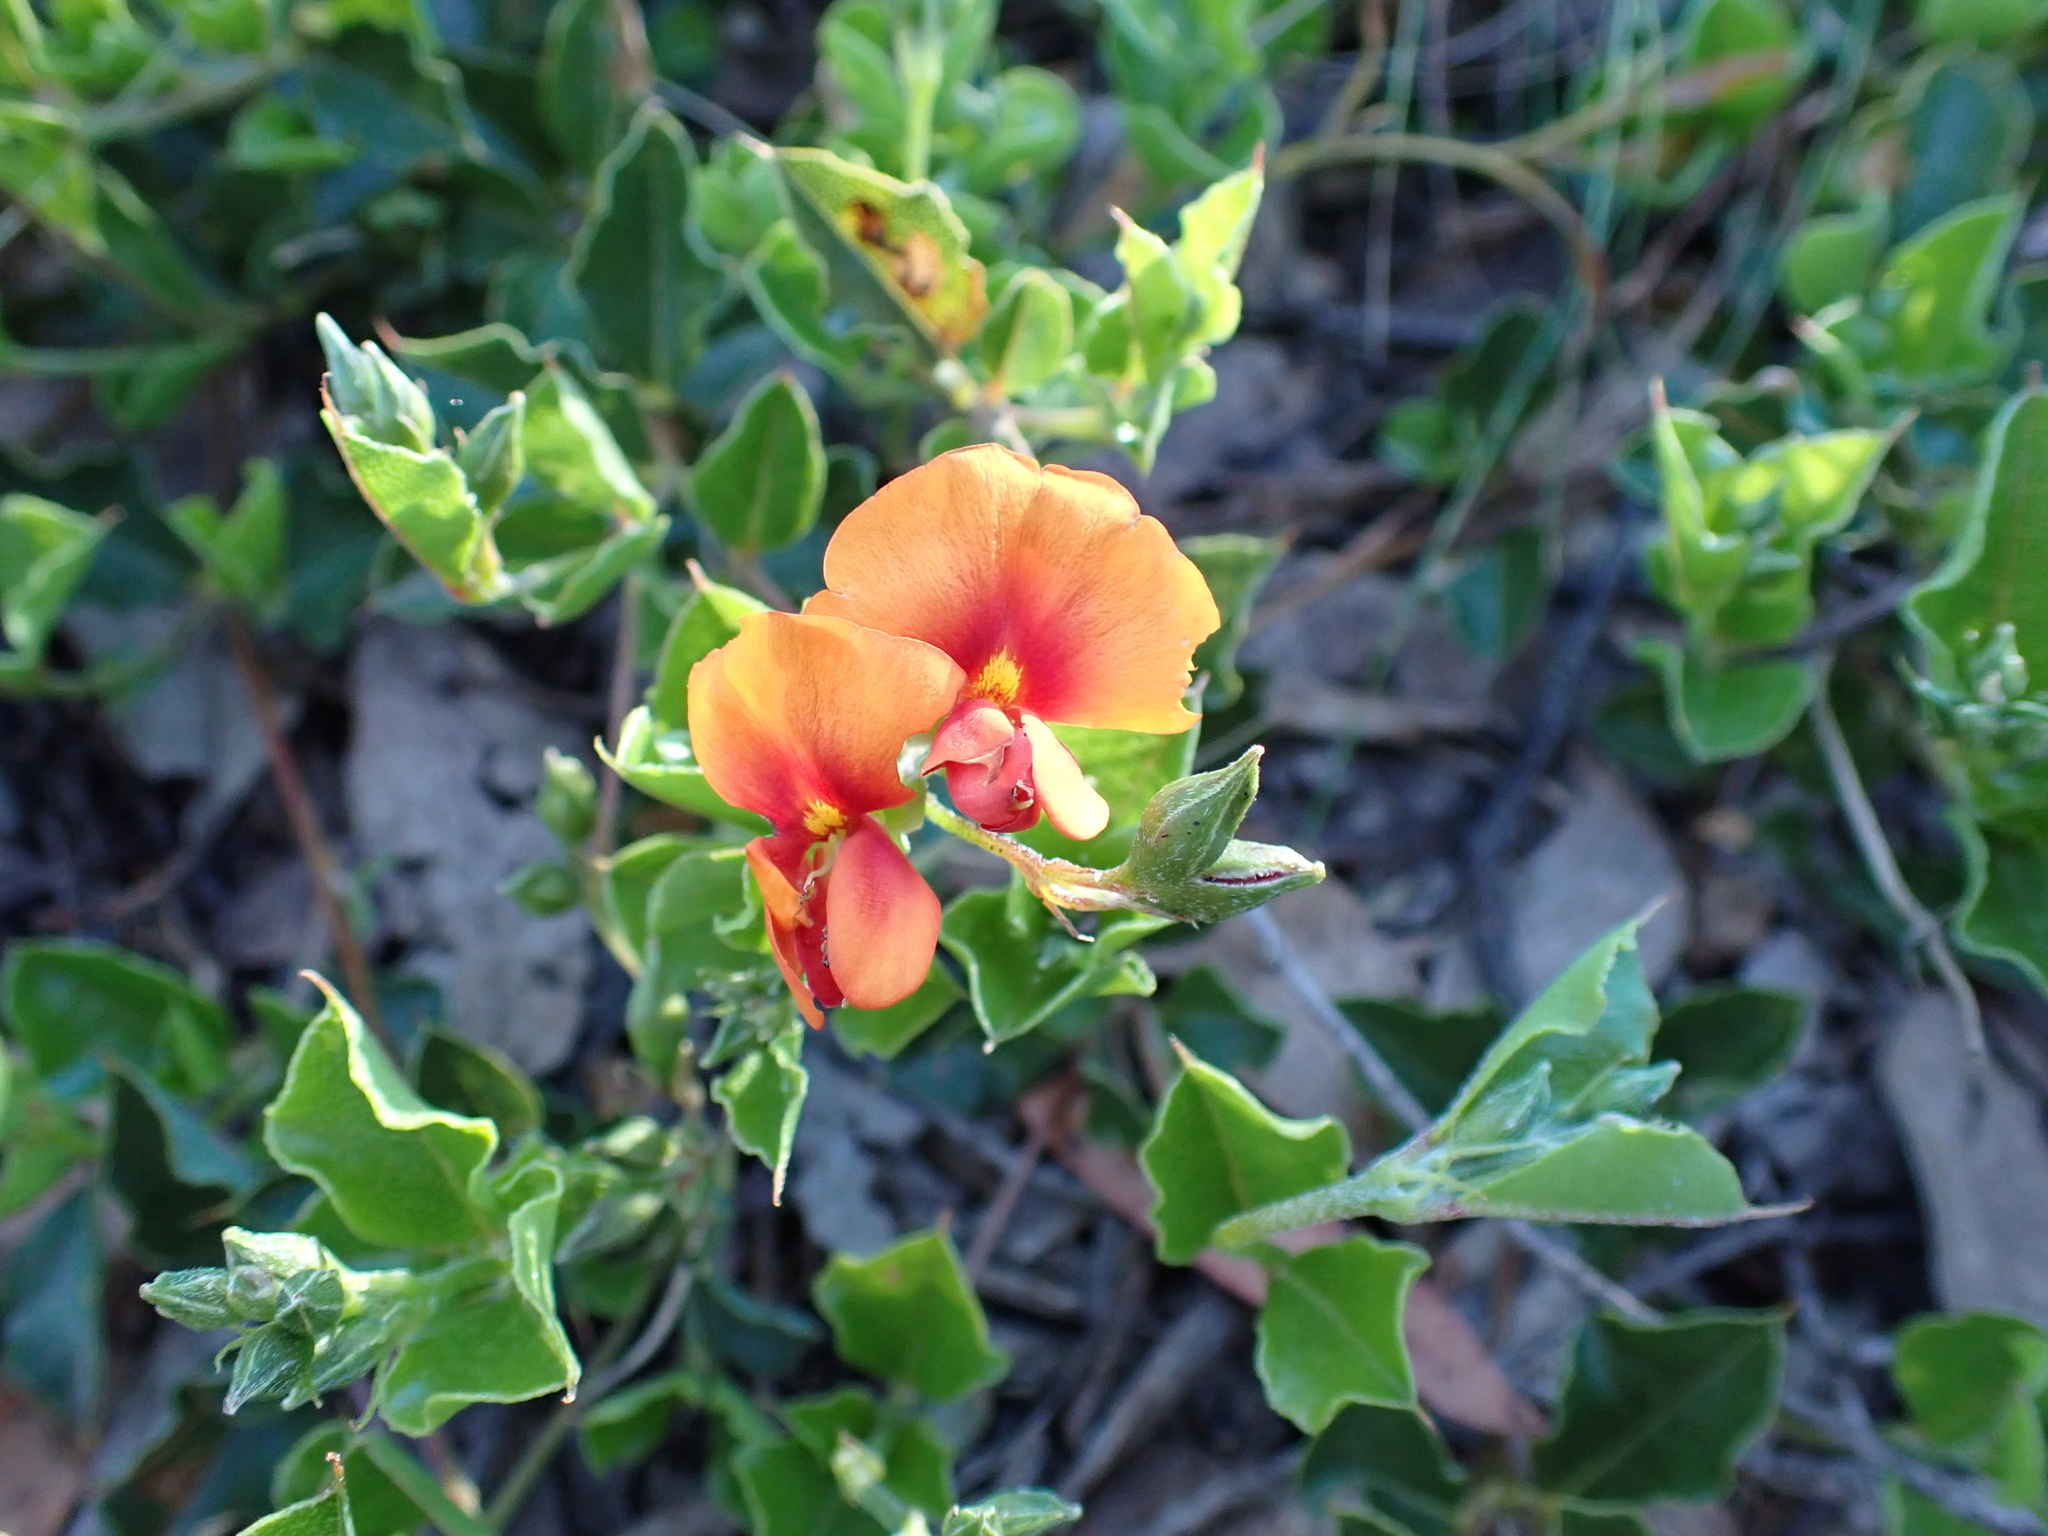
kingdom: Plantae
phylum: Tracheophyta
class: Magnoliopsida
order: Fabales
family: Fabaceae
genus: Podolobium
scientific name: Podolobium procumbens
